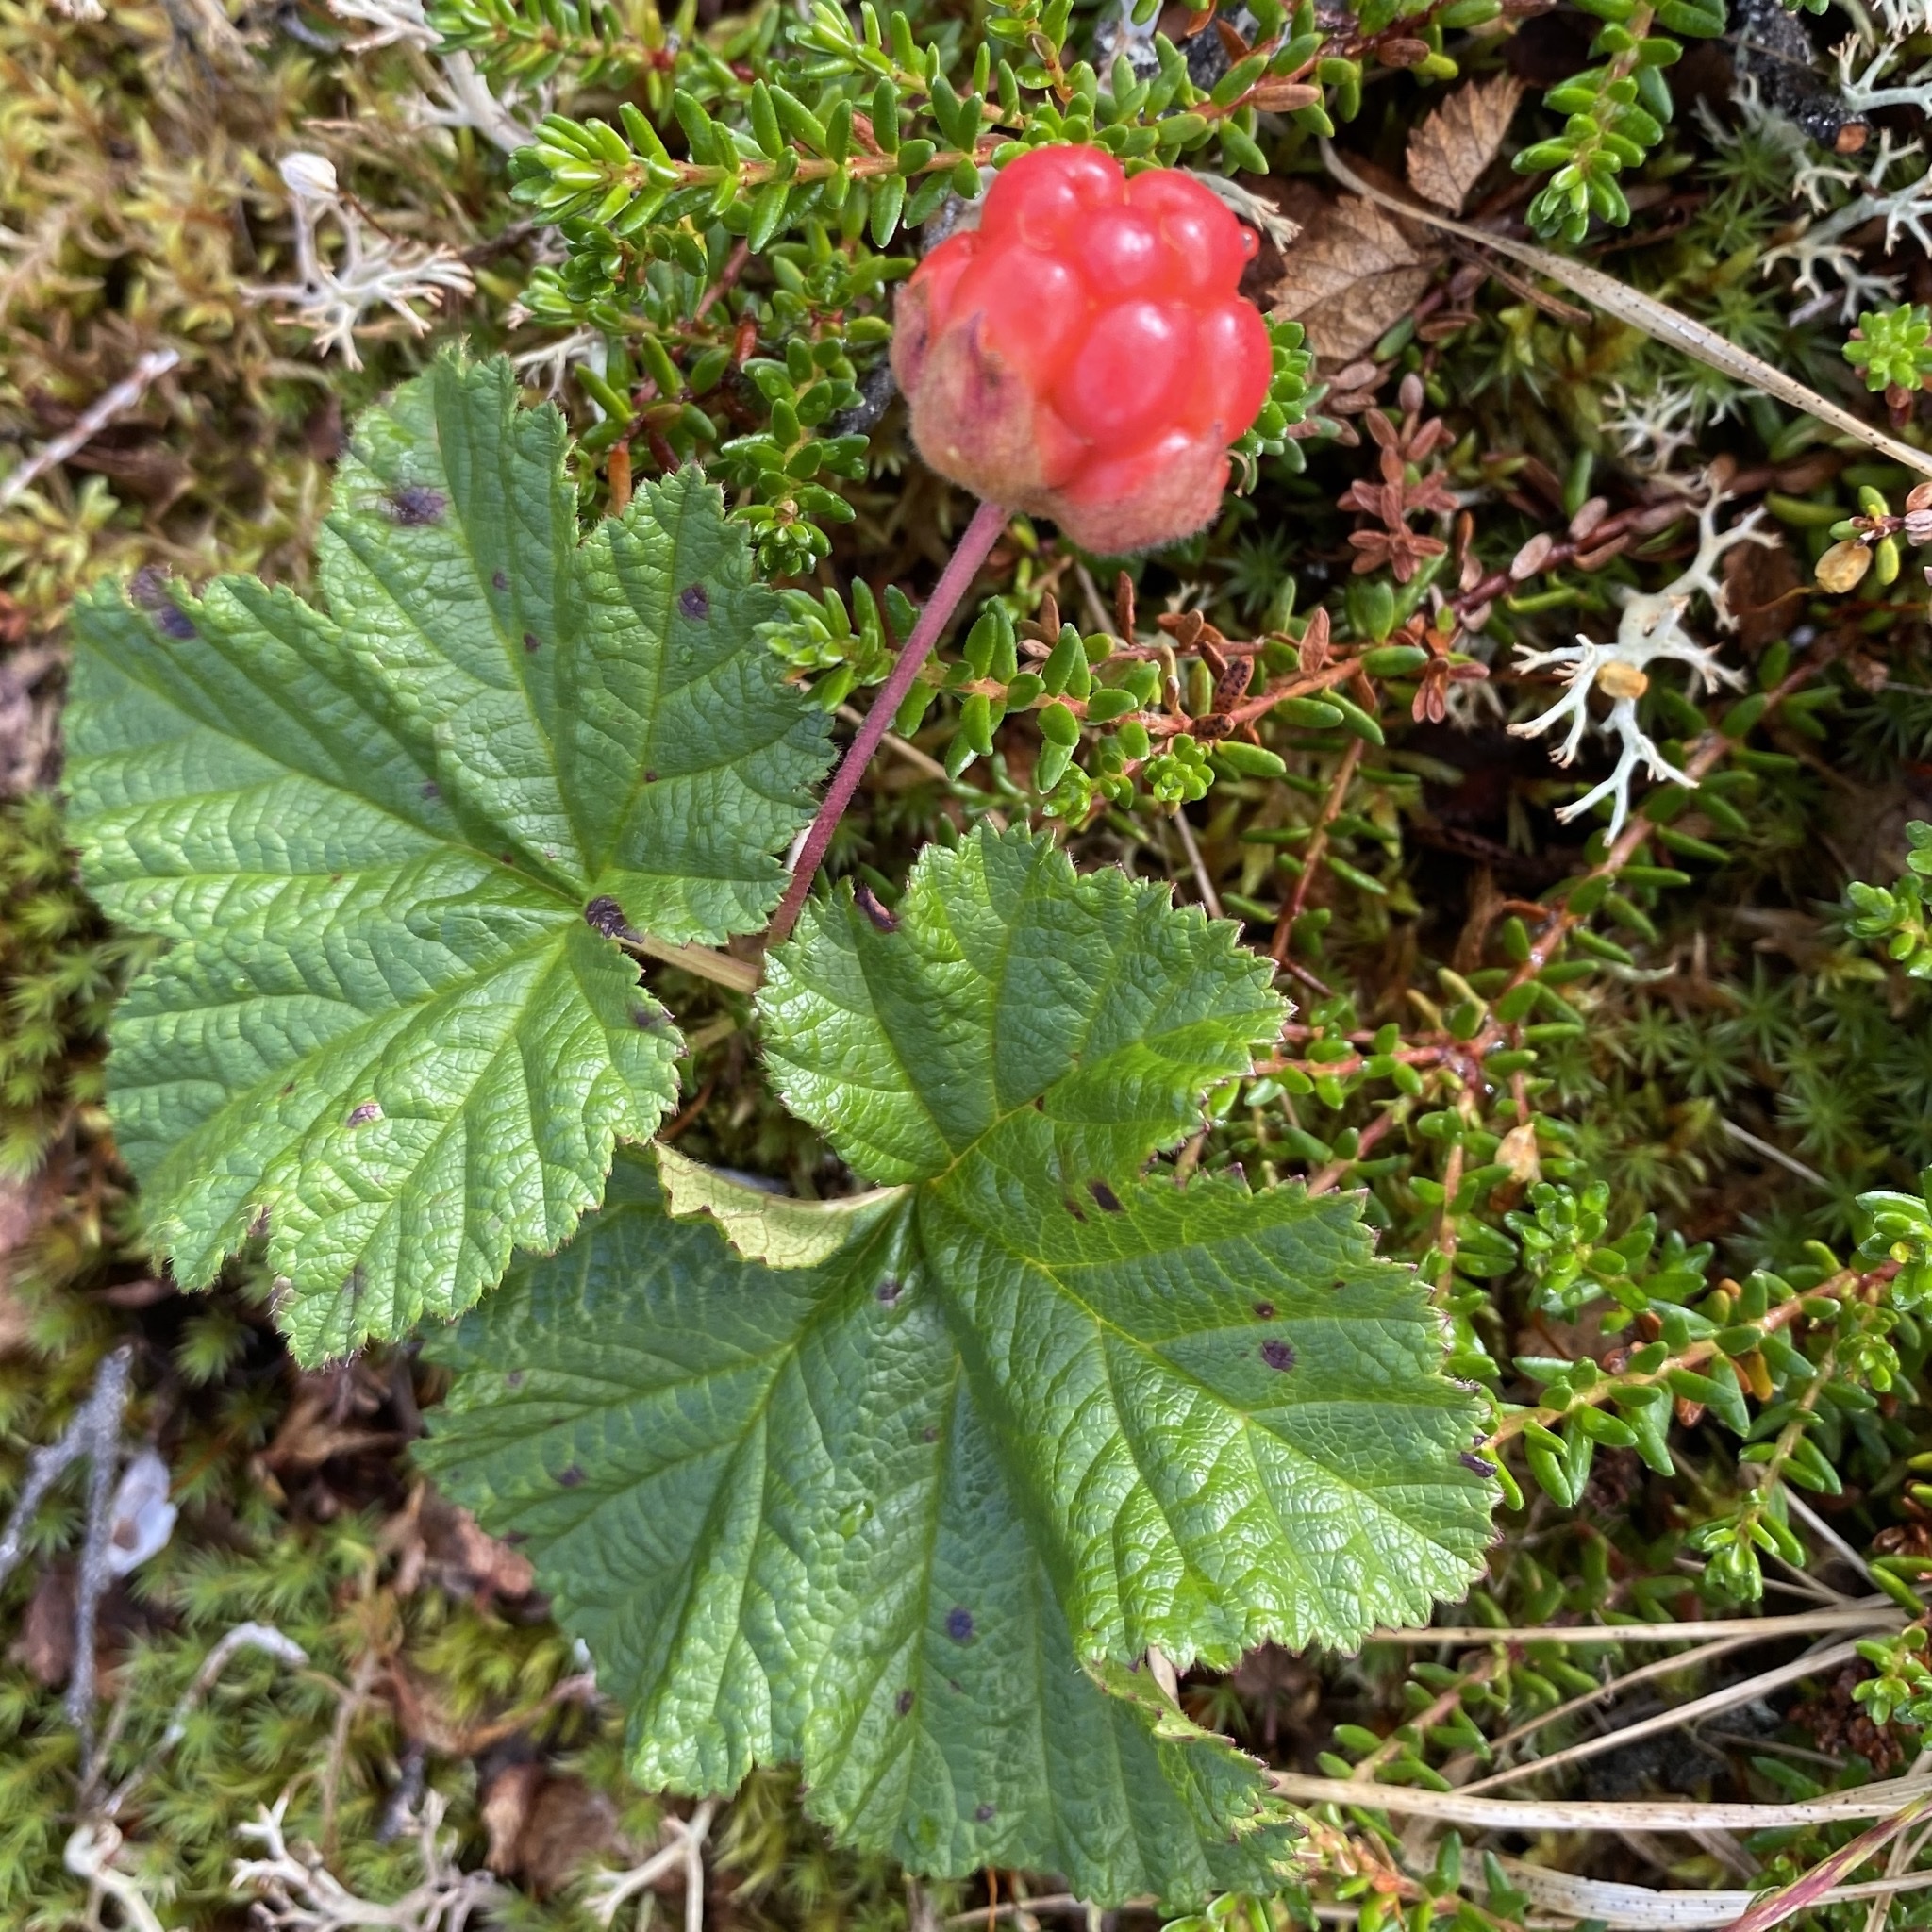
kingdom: Plantae
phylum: Tracheophyta
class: Magnoliopsida
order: Rosales
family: Rosaceae
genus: Rubus
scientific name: Rubus chamaemorus
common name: Cloudberry
